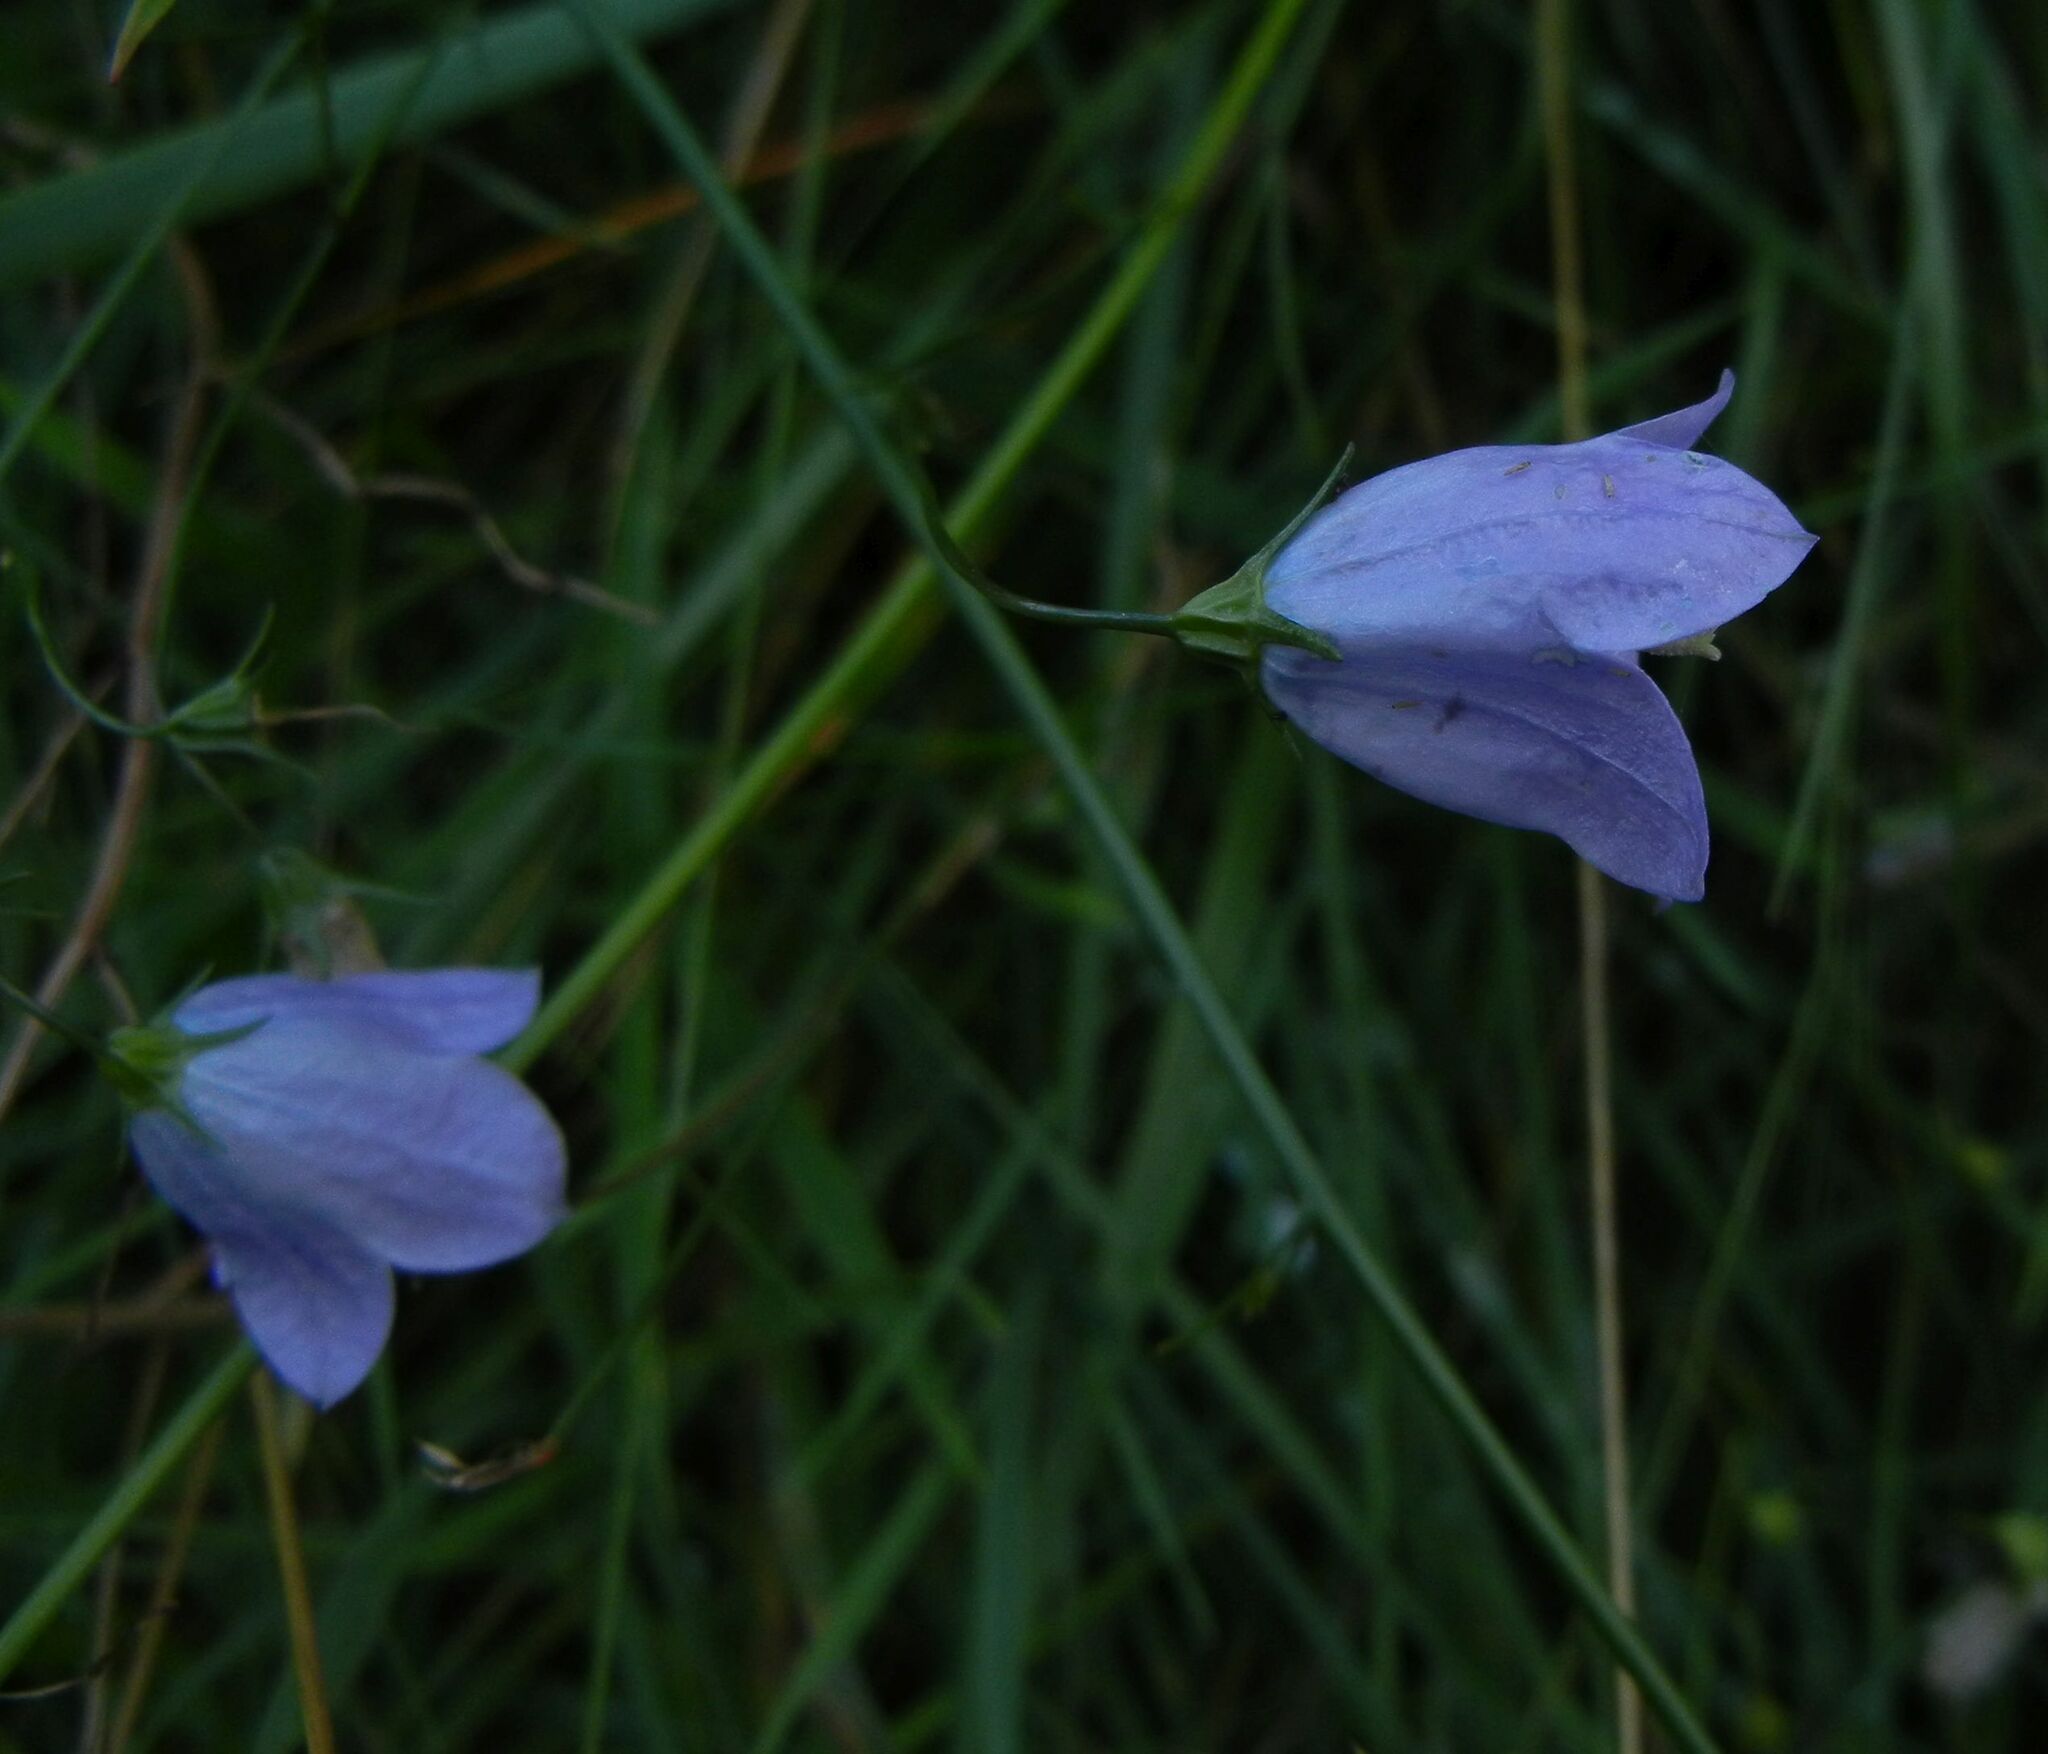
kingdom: Plantae
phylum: Tracheophyta
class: Magnoliopsida
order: Asterales
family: Campanulaceae
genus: Campanula
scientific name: Campanula rotundifolia
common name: Harebell
